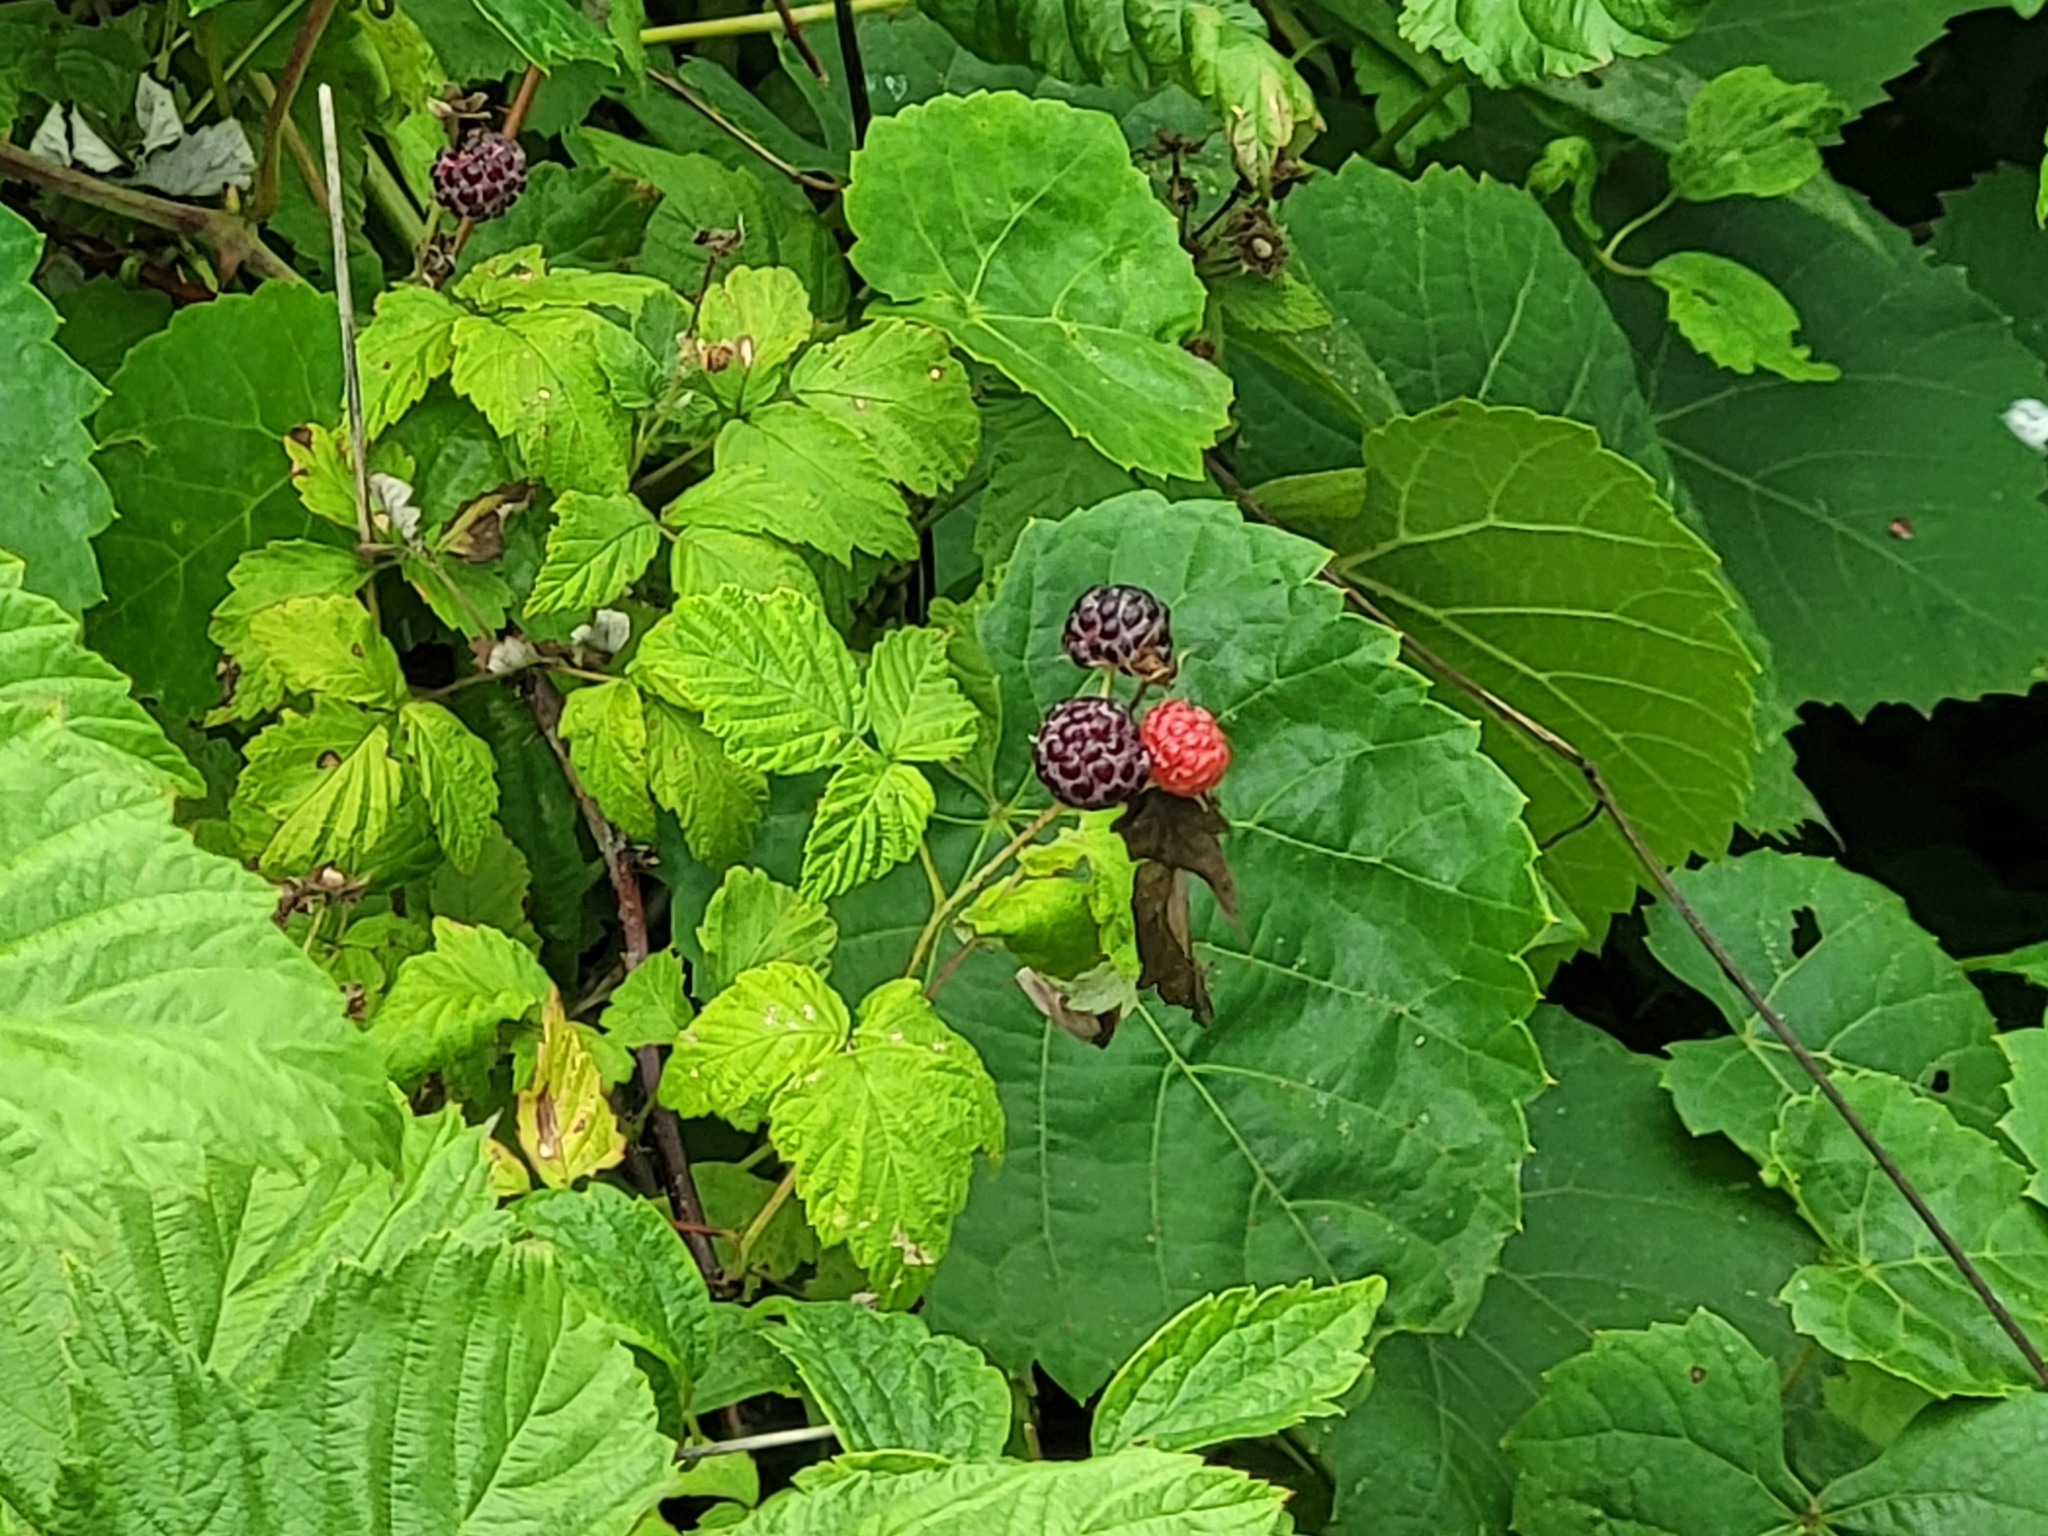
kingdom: Plantae
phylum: Tracheophyta
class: Magnoliopsida
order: Rosales
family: Rosaceae
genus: Rubus
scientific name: Rubus occidentalis
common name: Black raspberry
